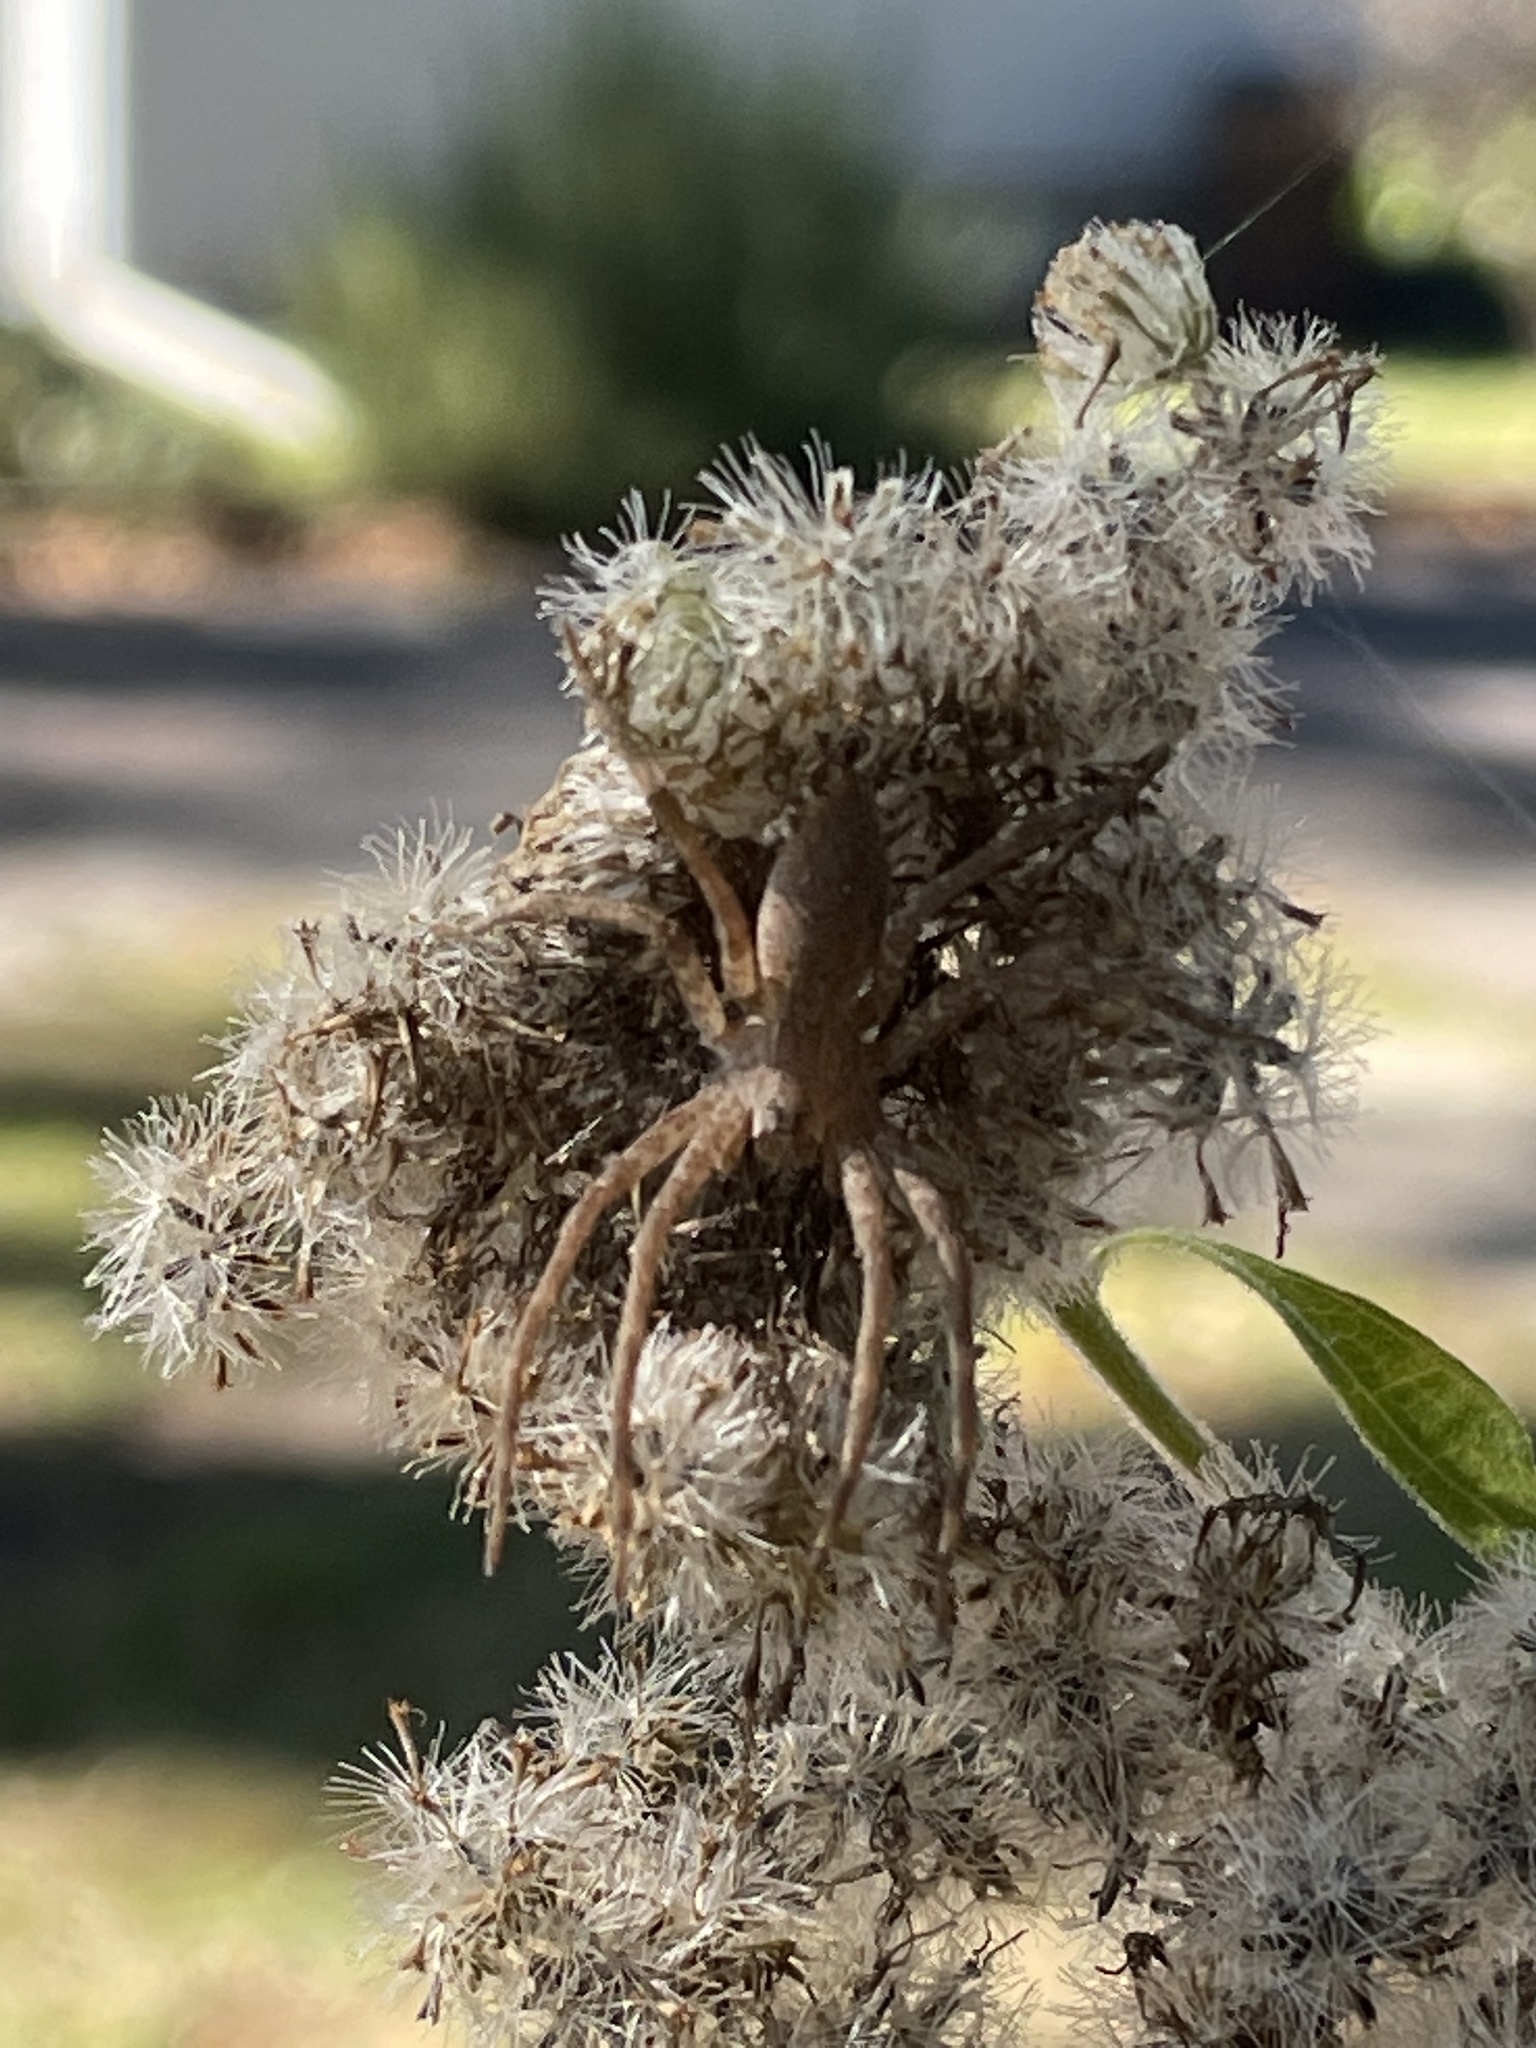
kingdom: Animalia
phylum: Arthropoda
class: Arachnida
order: Araneae
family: Pisauridae
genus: Pisaurina
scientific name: Pisaurina mira
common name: American nursery web spider
